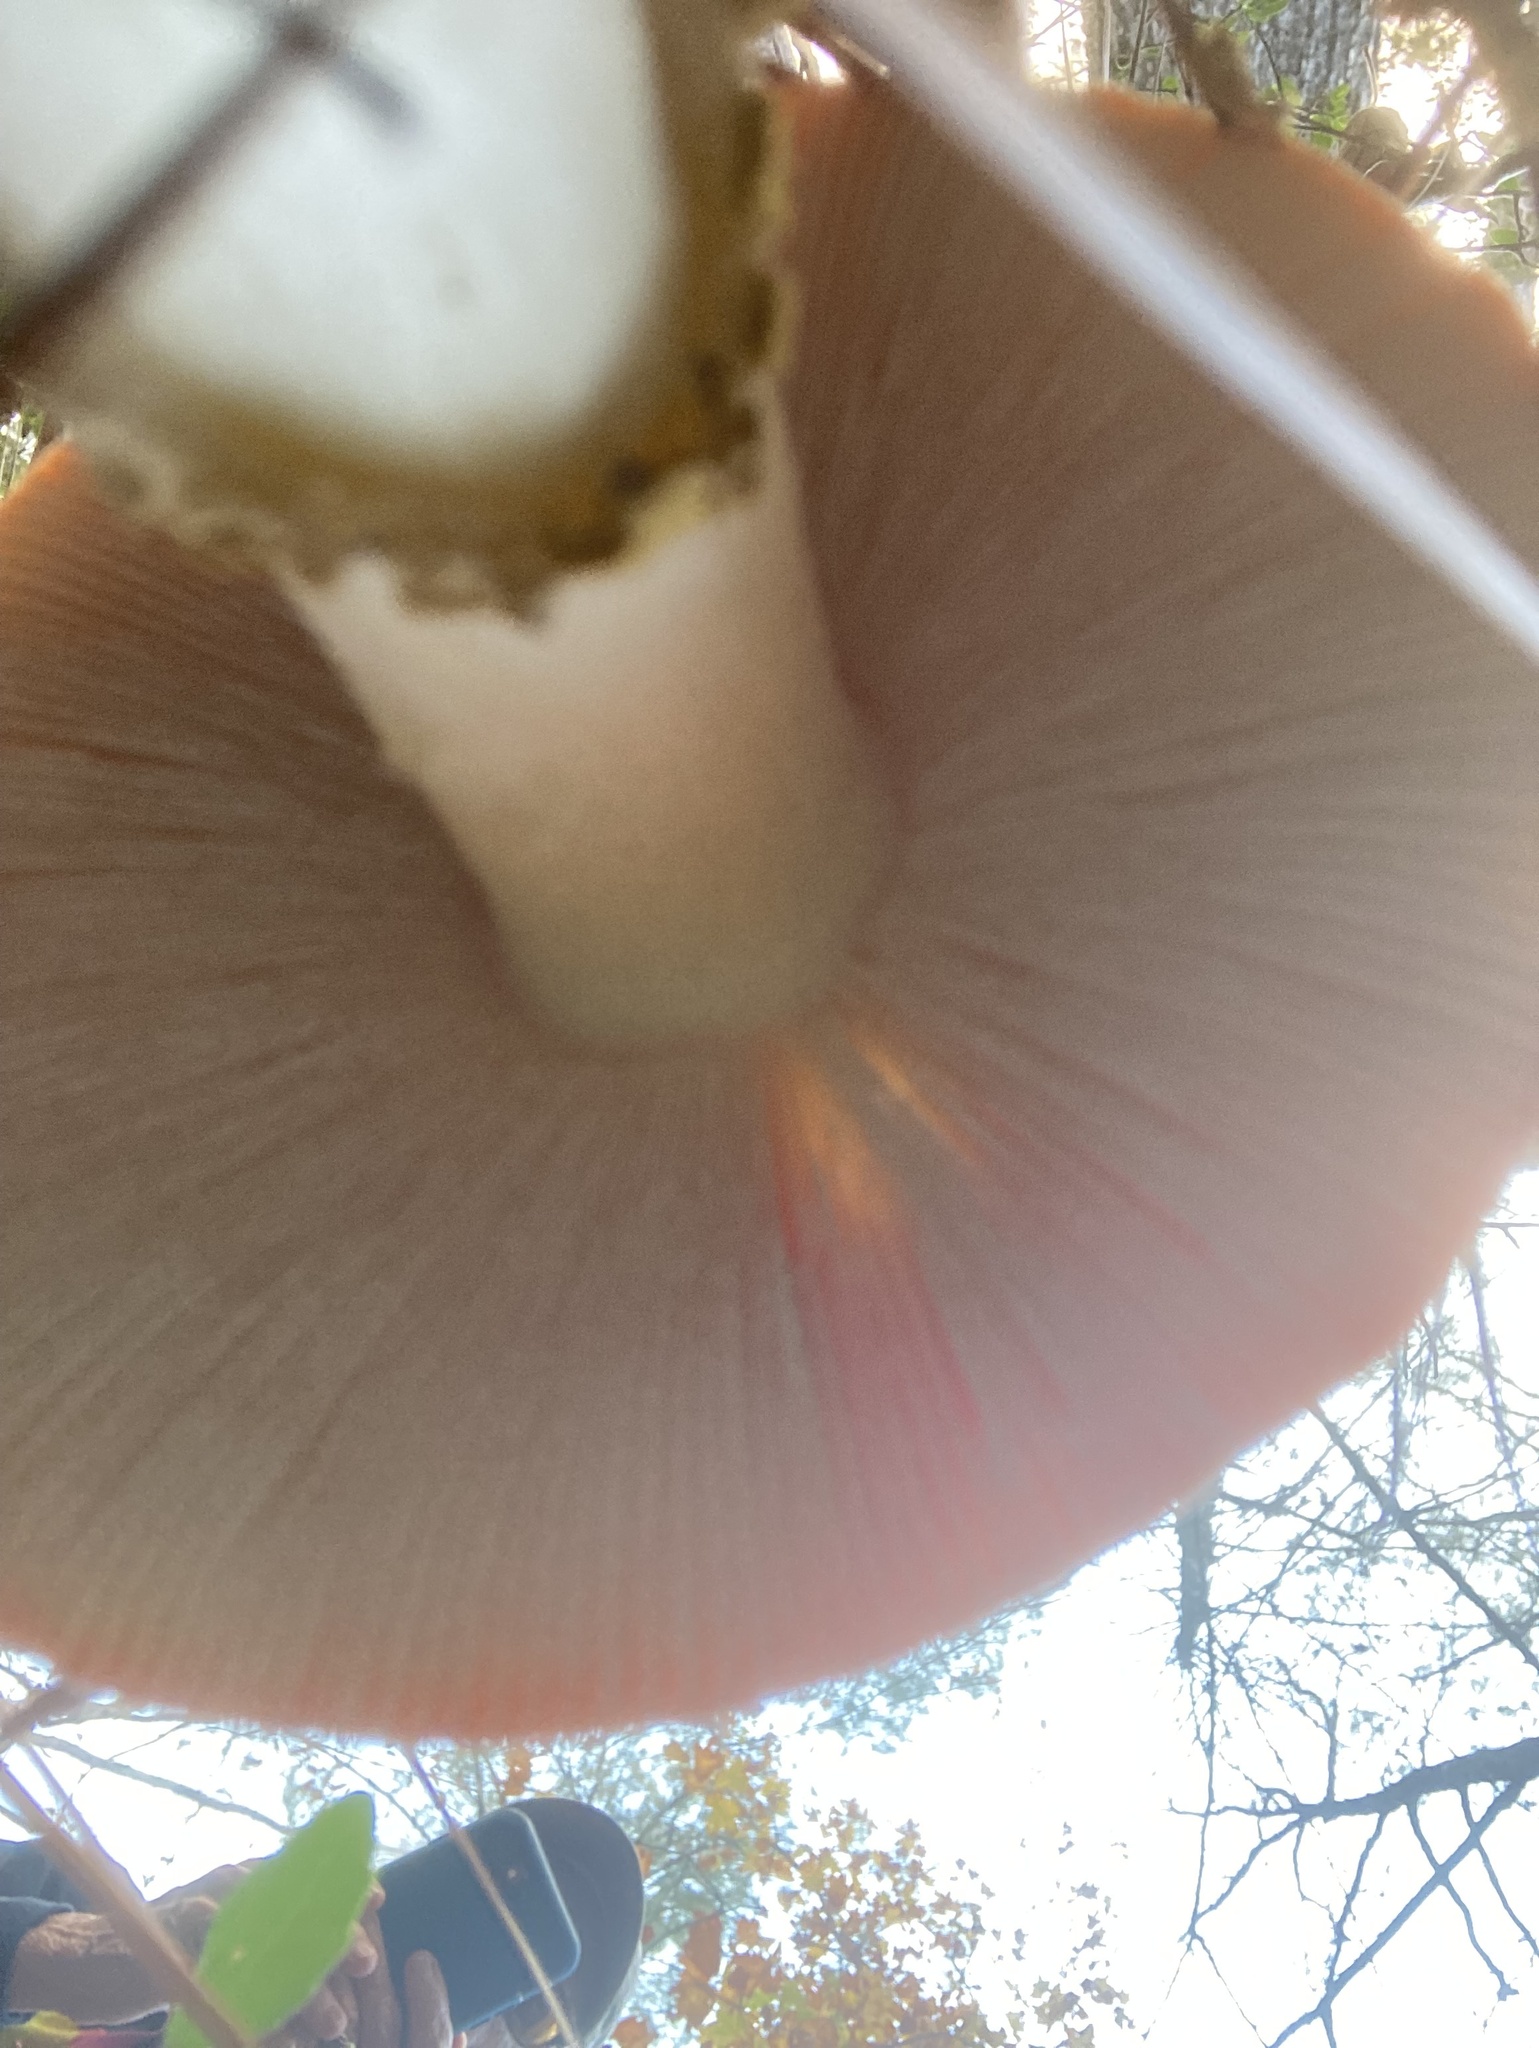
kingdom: Fungi
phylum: Basidiomycota
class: Agaricomycetes
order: Agaricales
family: Amanitaceae
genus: Amanita
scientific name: Amanita persicina
